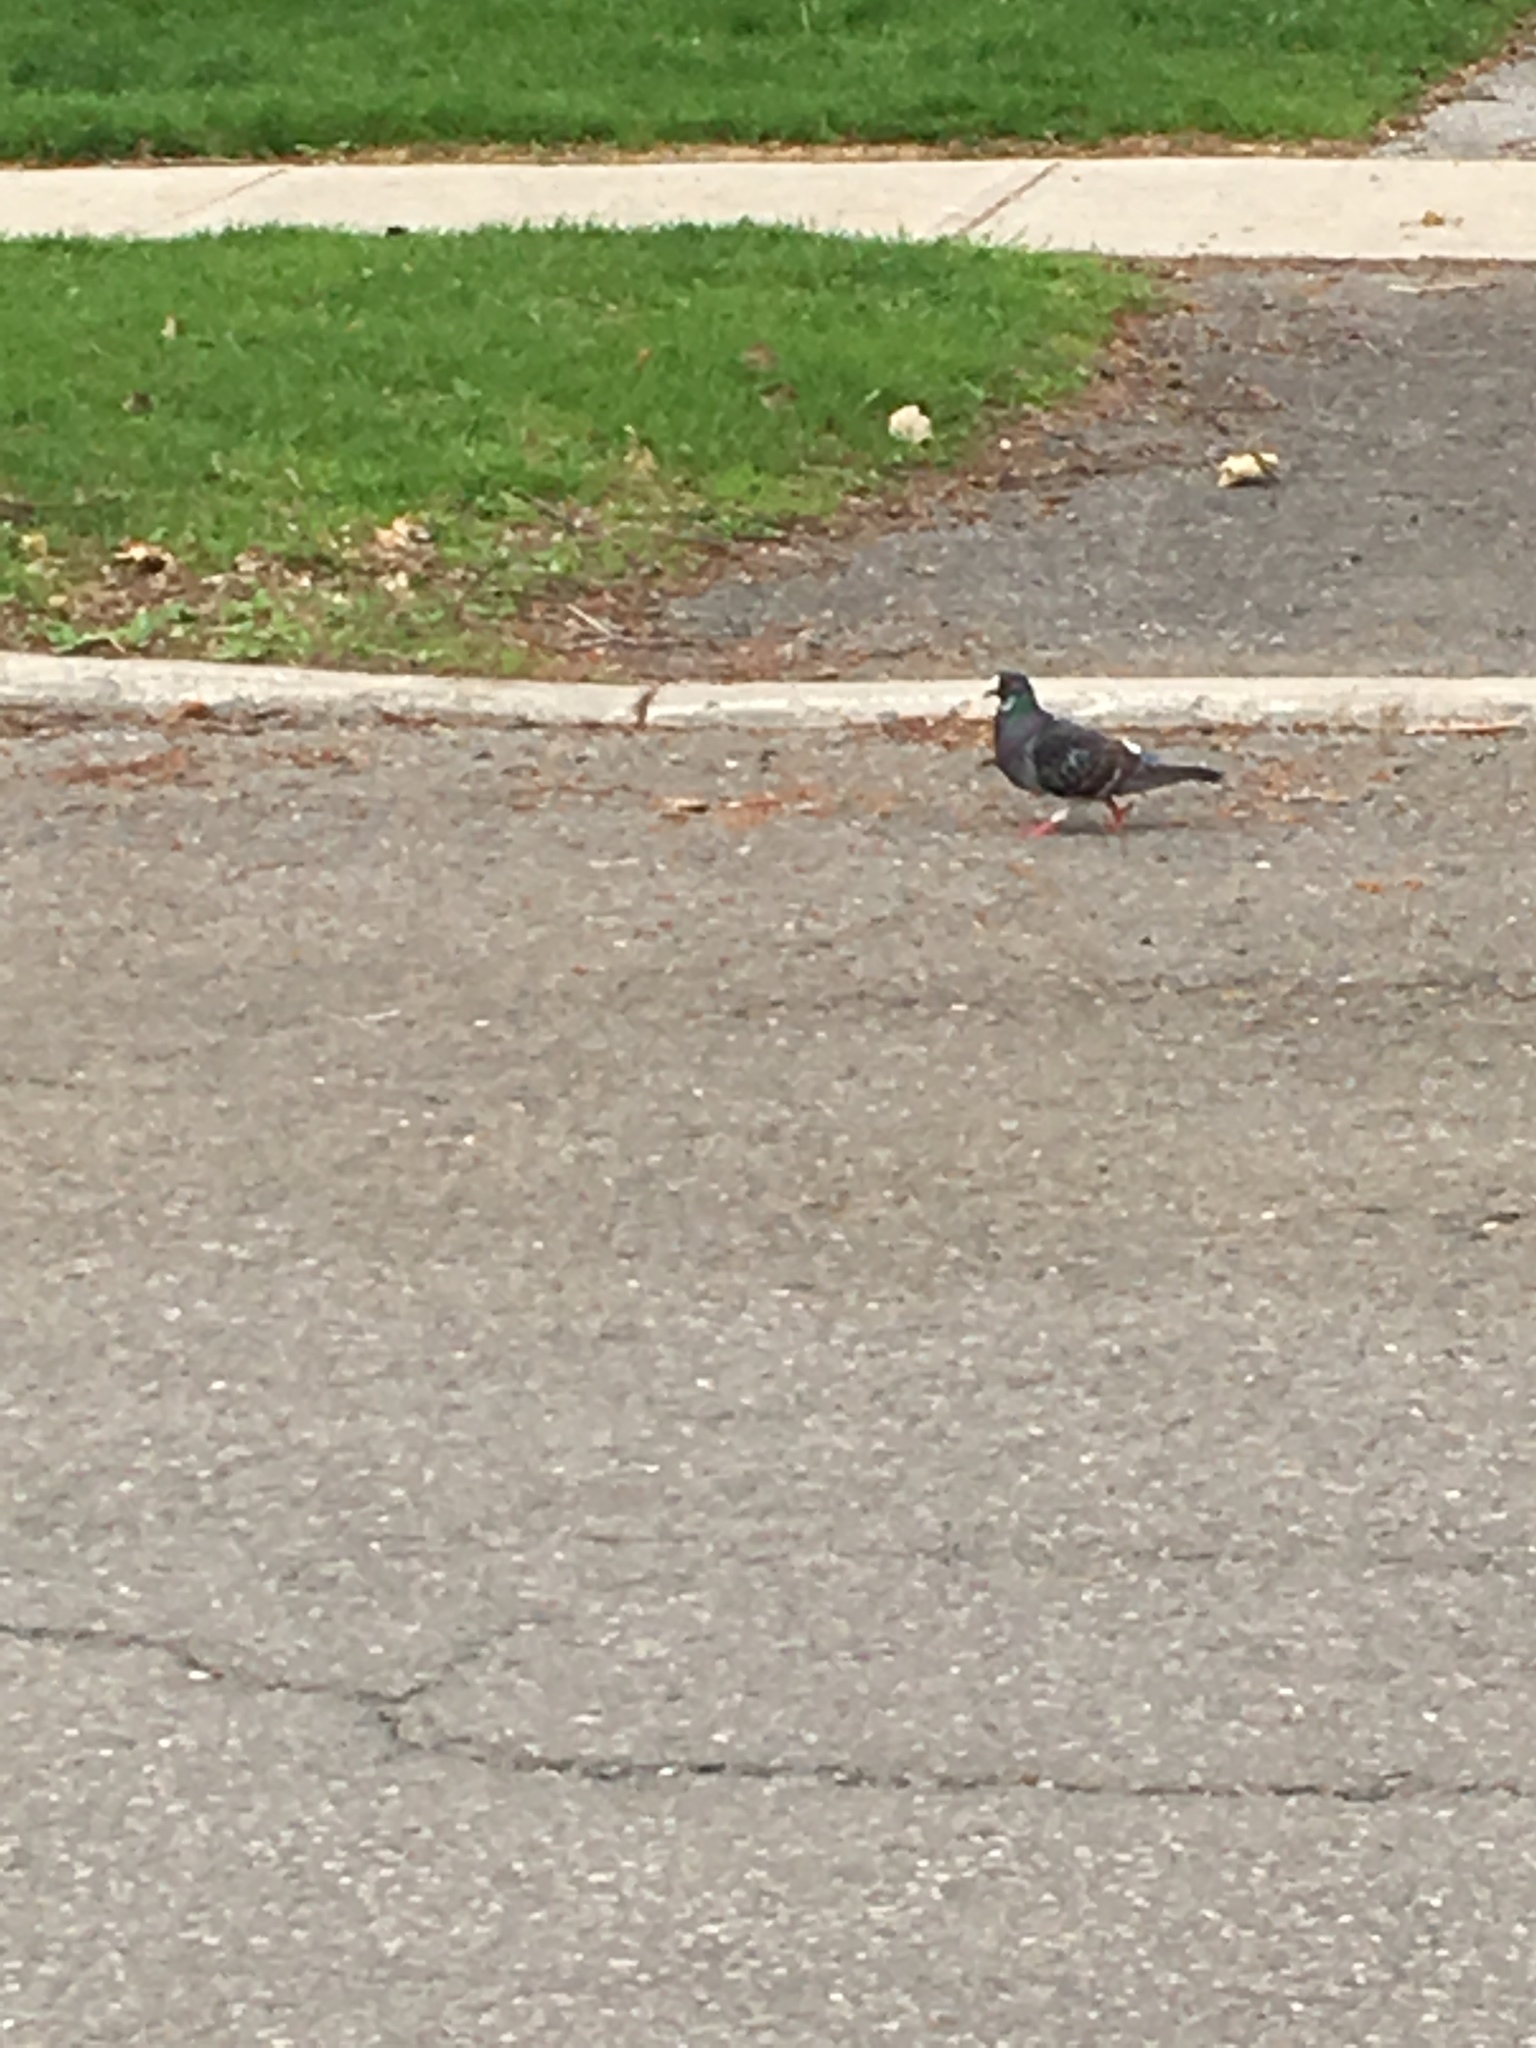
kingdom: Animalia
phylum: Chordata
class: Aves
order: Columbiformes
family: Columbidae
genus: Columba
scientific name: Columba livia
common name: Rock pigeon
